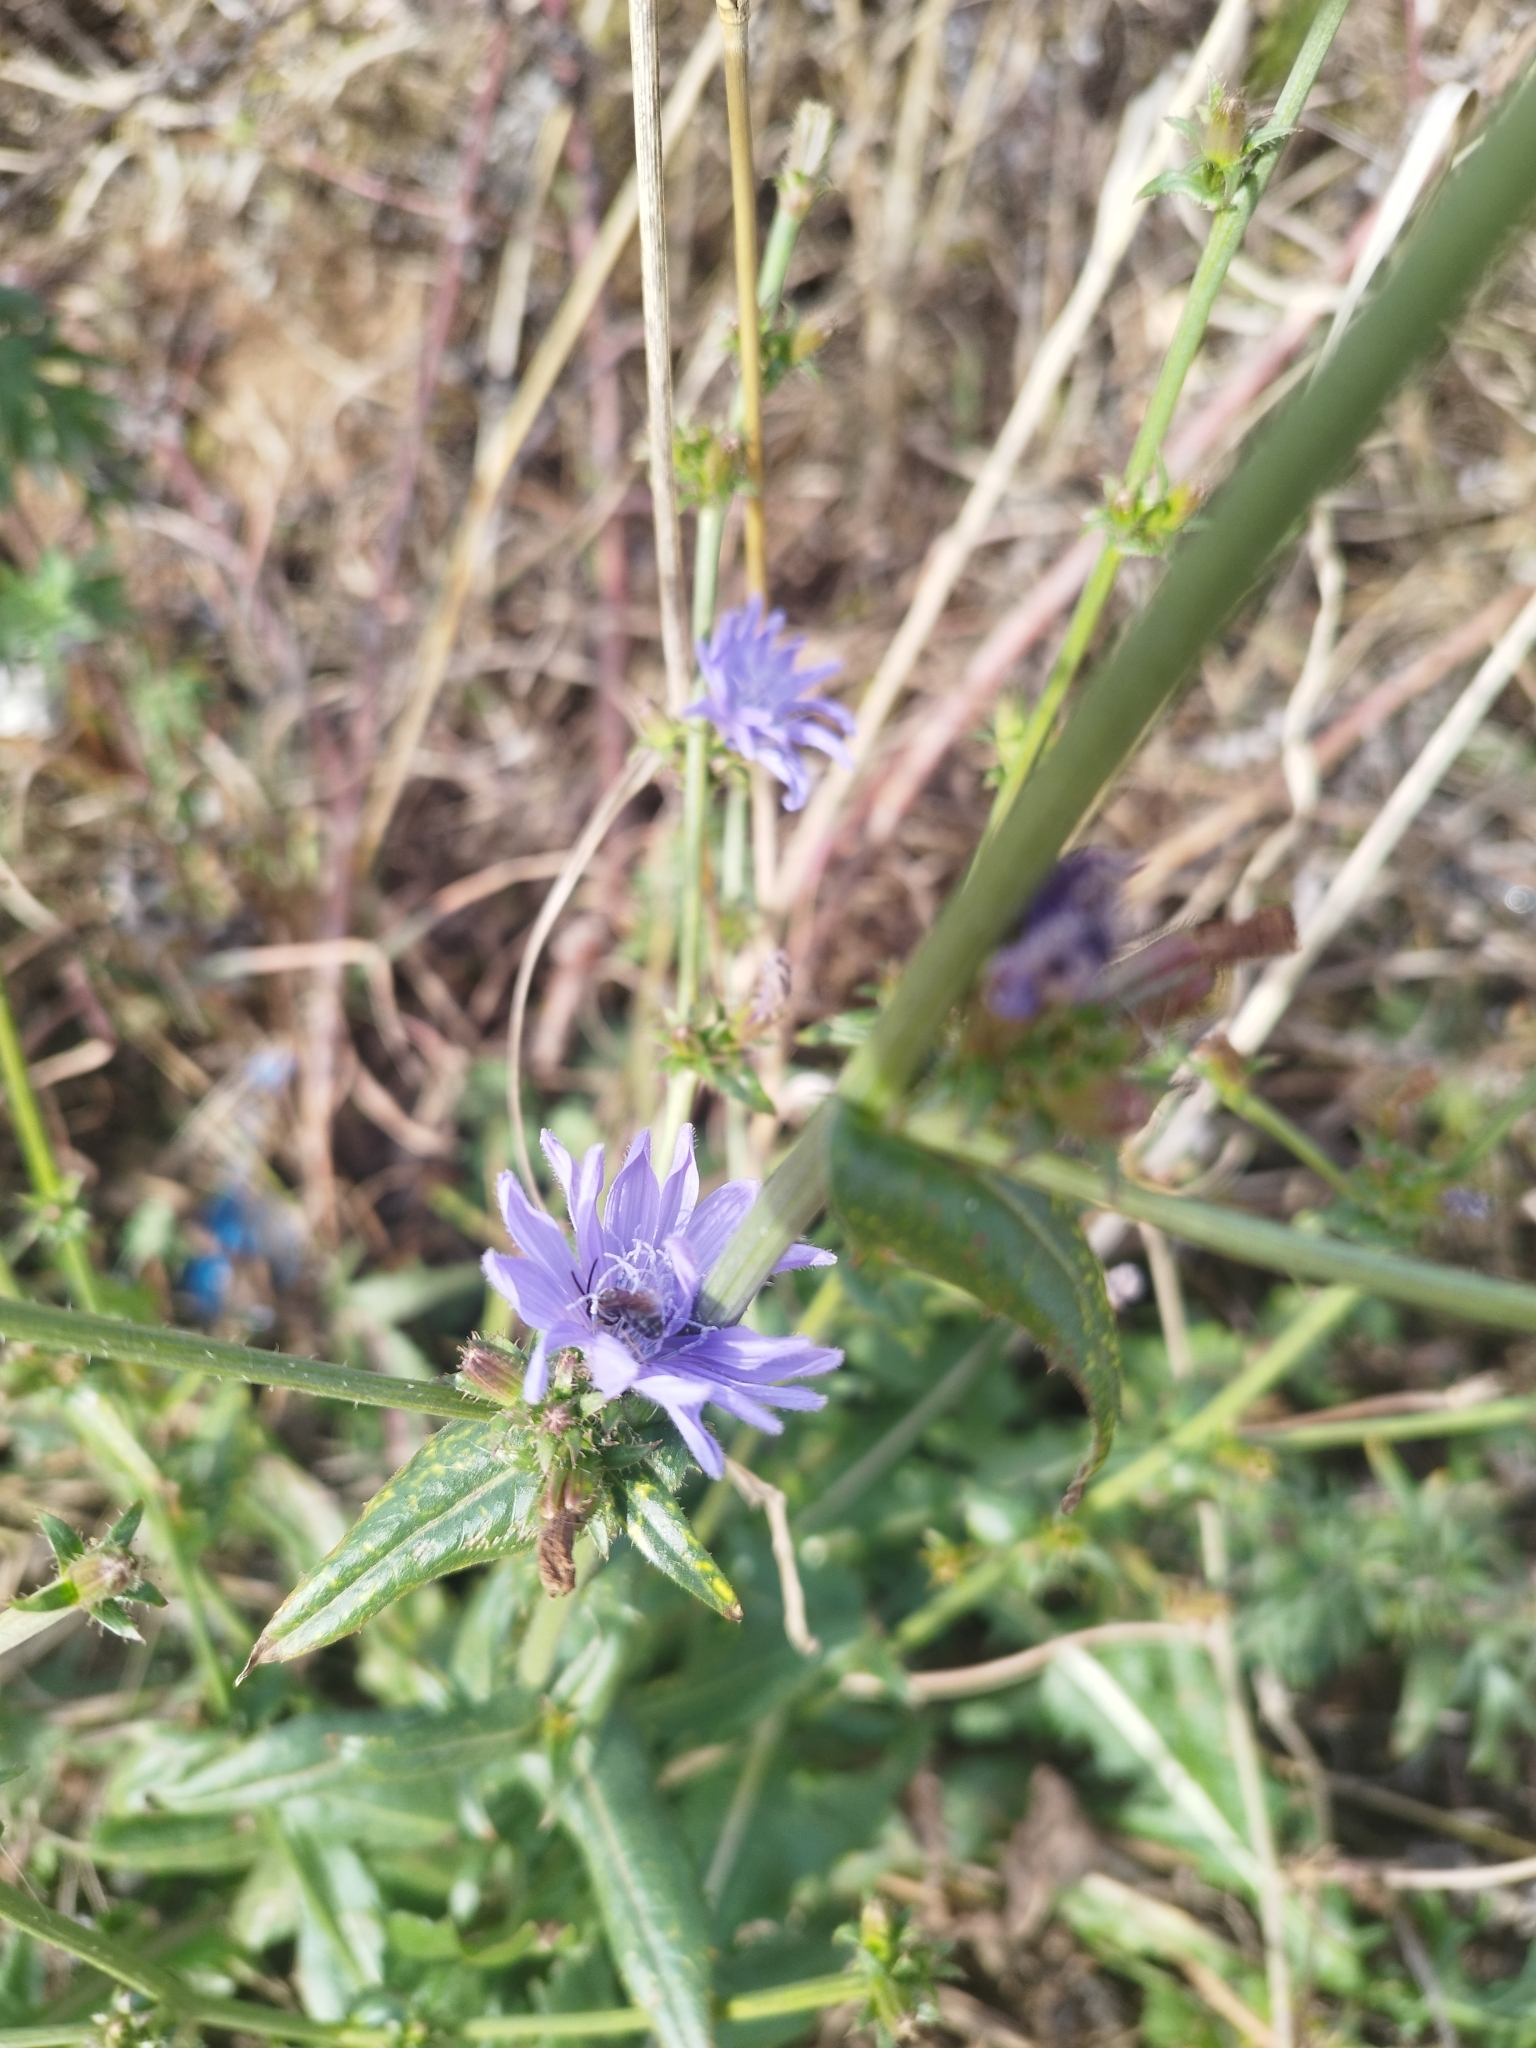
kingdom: Plantae
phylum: Tracheophyta
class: Magnoliopsida
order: Asterales
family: Asteraceae
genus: Cichorium
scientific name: Cichorium intybus
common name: Chicory
